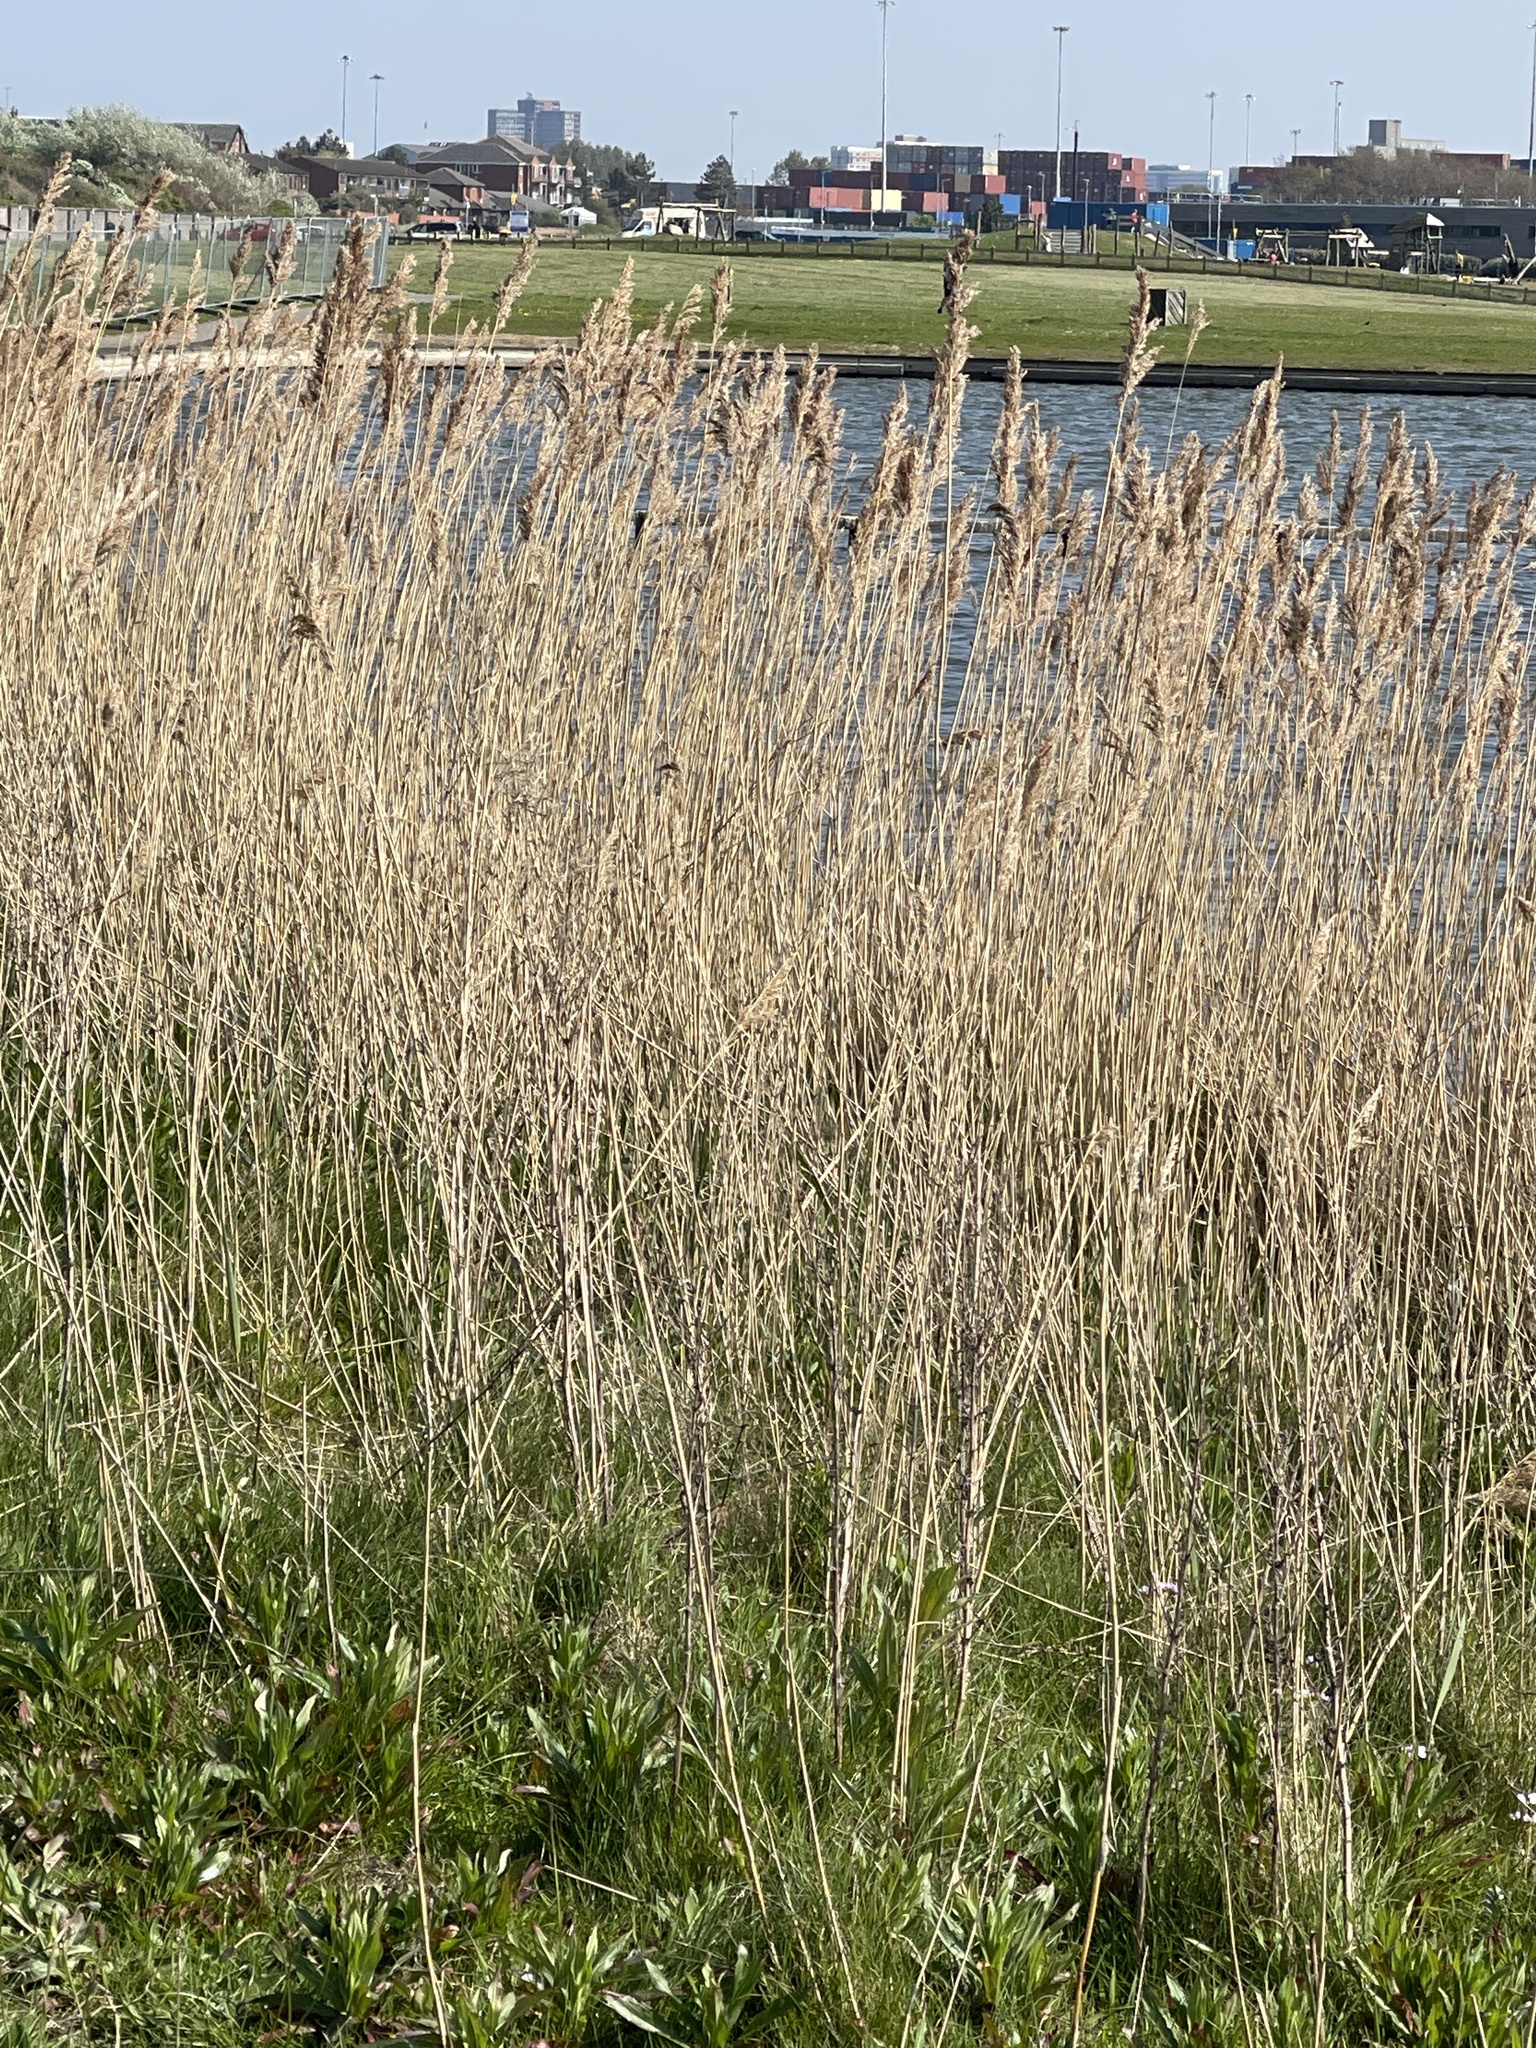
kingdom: Plantae
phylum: Tracheophyta
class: Liliopsida
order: Poales
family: Poaceae
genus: Phragmites
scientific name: Phragmites australis
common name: Common reed
